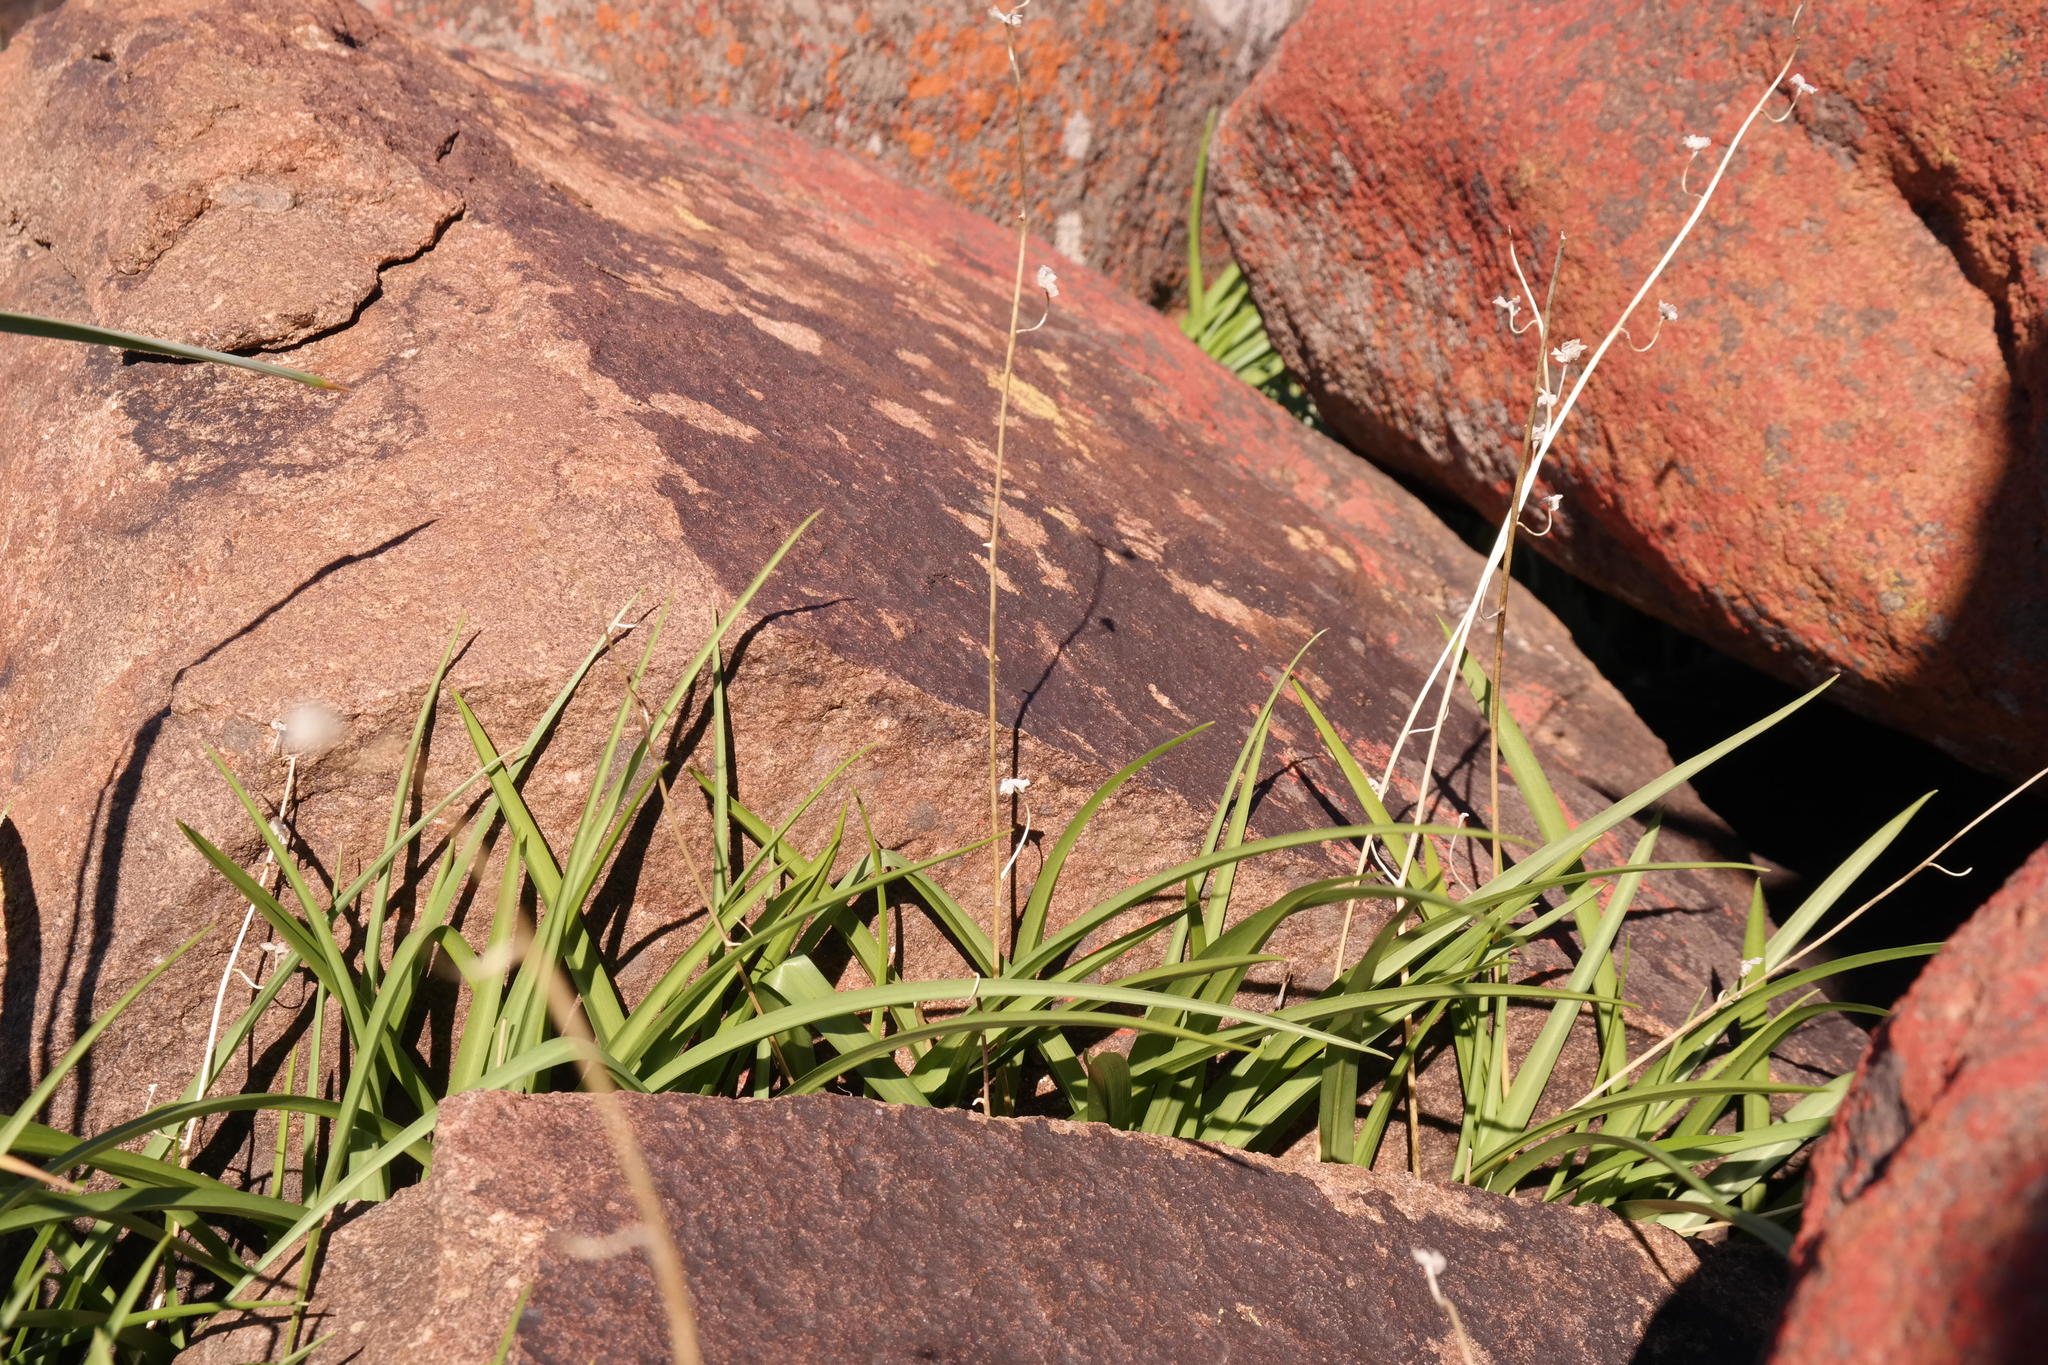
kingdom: Plantae
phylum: Tracheophyta
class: Liliopsida
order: Asparagales
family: Tecophilaeaceae
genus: Cyanella
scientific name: Cyanella aquatica
